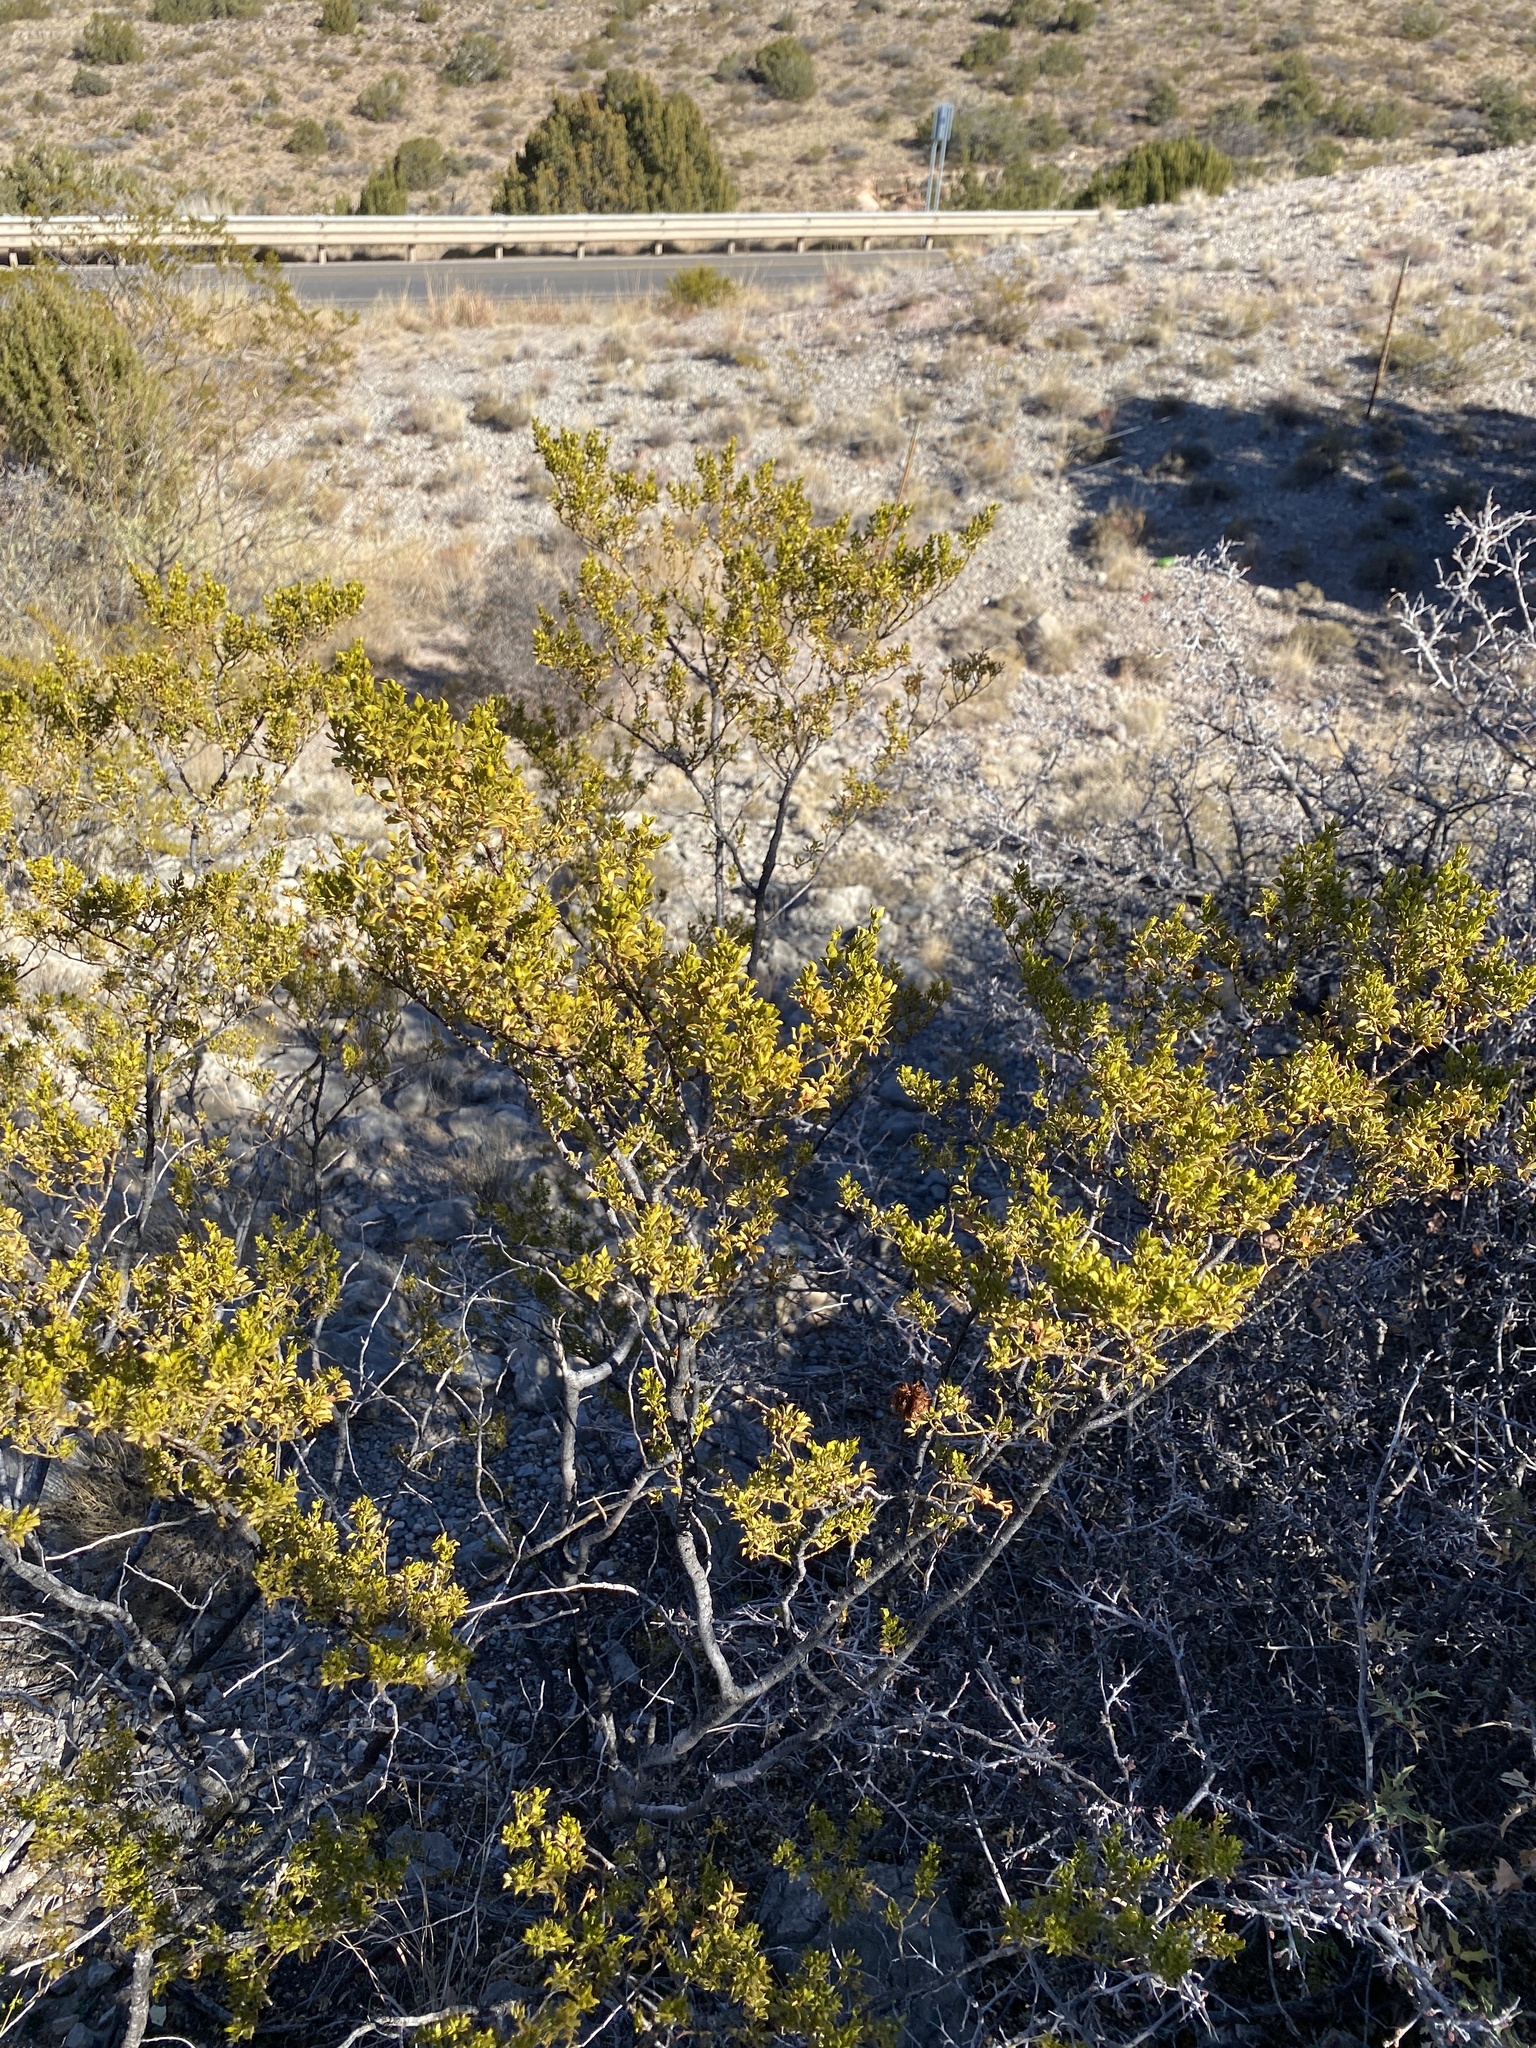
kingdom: Plantae
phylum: Tracheophyta
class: Magnoliopsida
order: Zygophyllales
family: Zygophyllaceae
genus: Larrea
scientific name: Larrea tridentata
